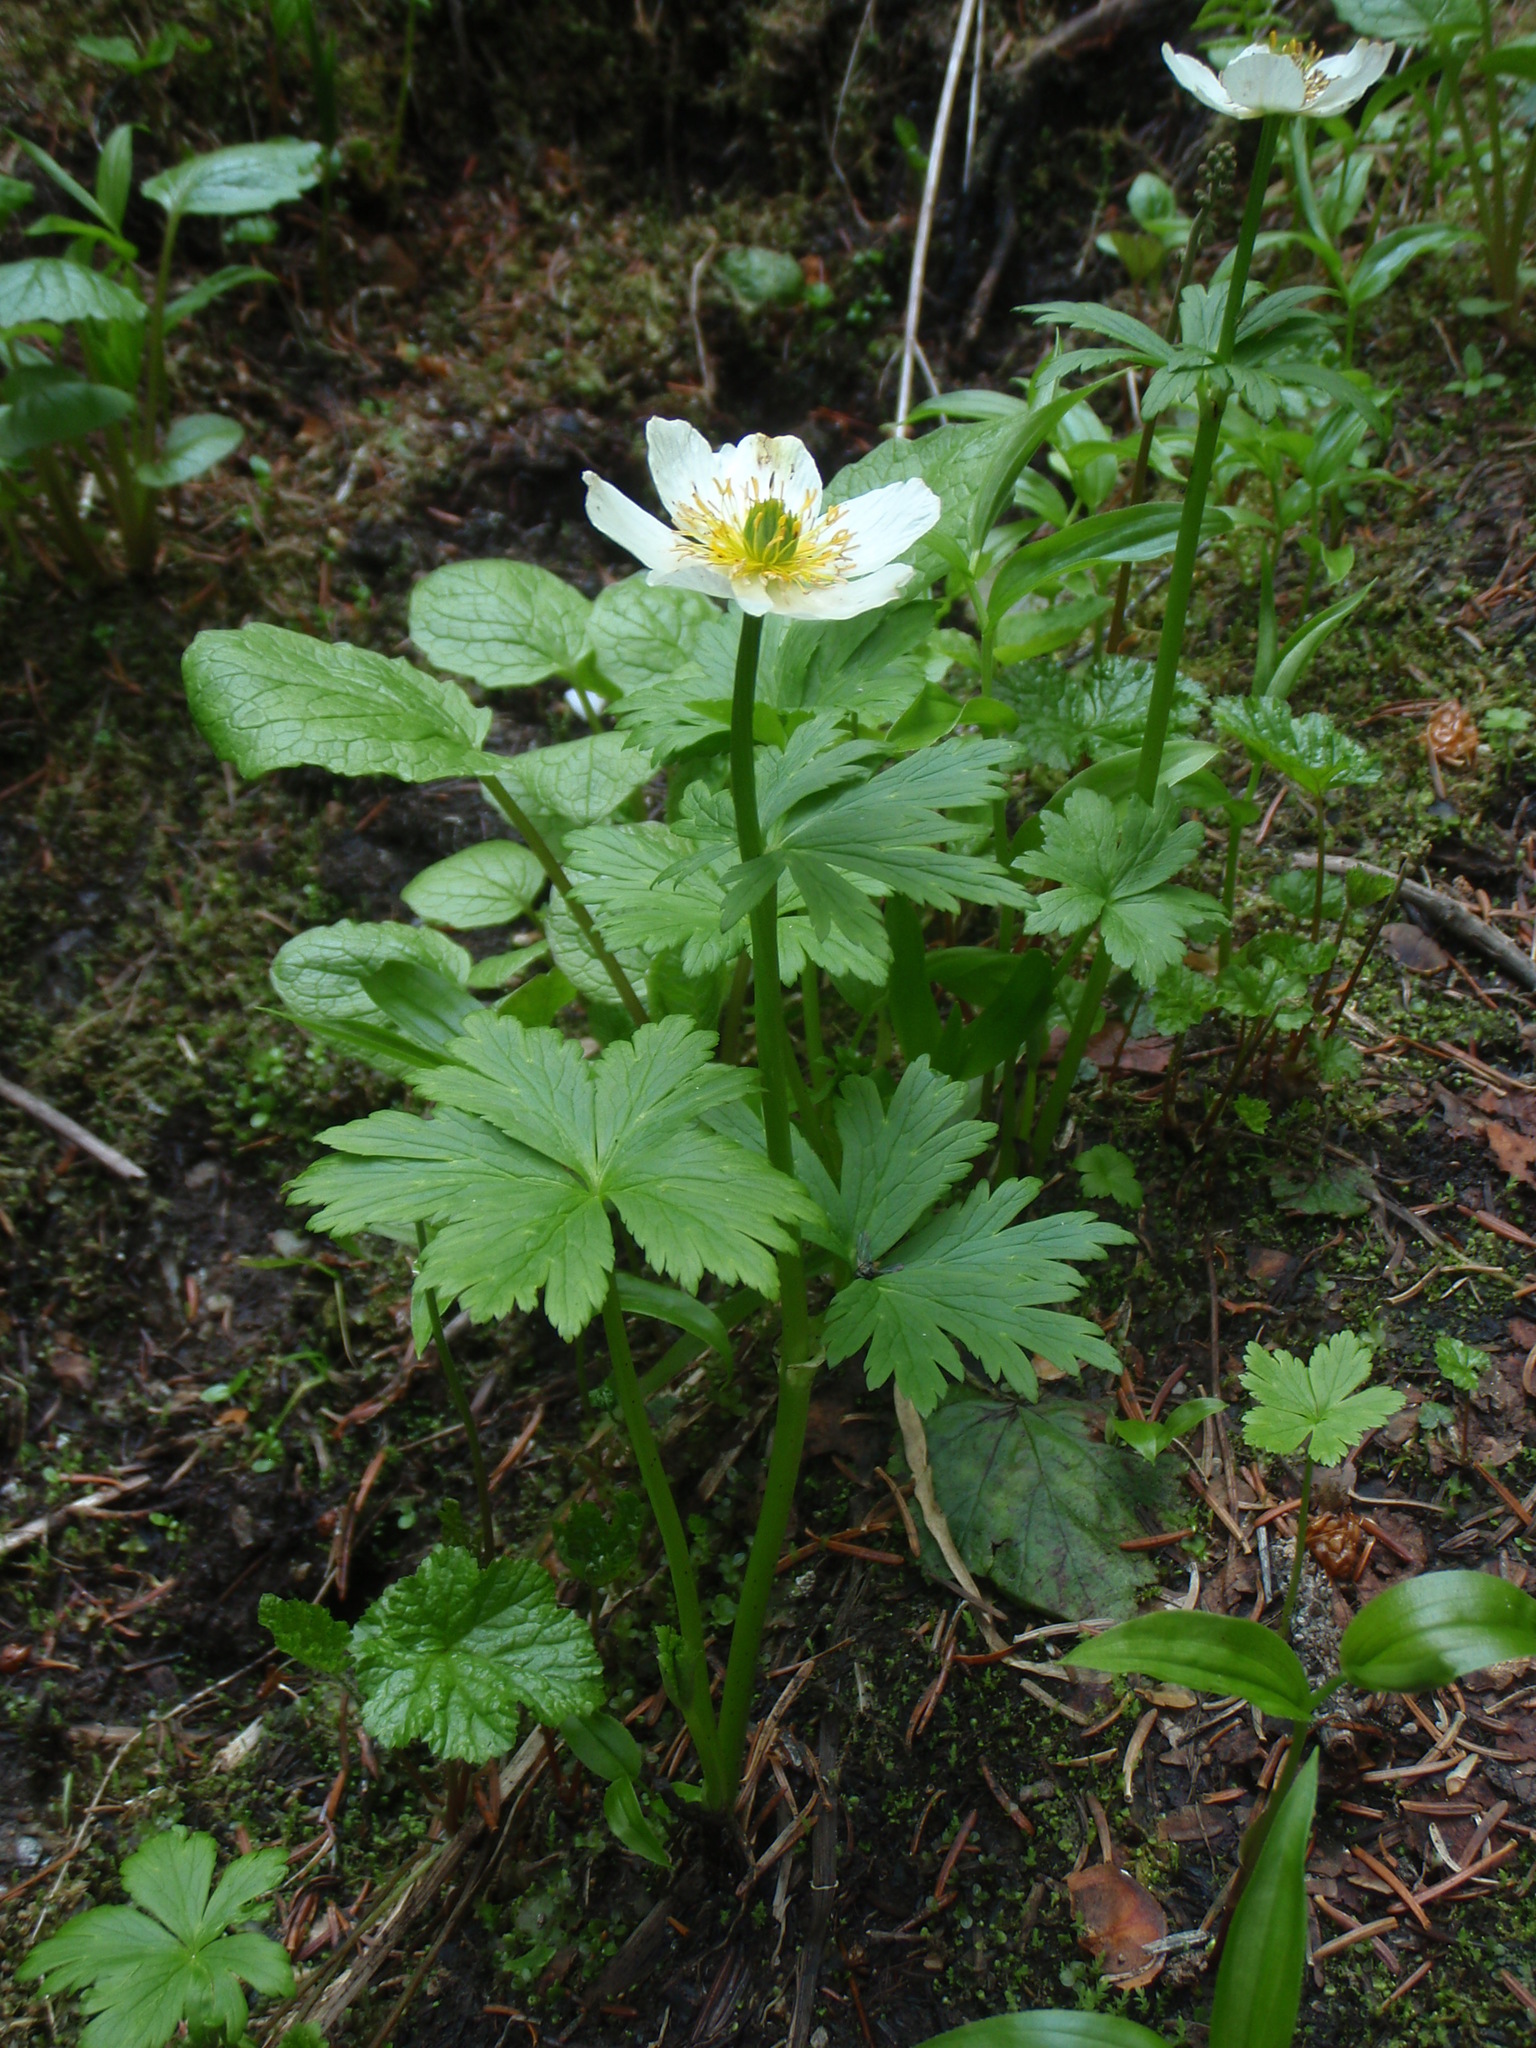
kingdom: Plantae
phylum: Tracheophyta
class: Magnoliopsida
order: Ranunculales
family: Ranunculaceae
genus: Trollius
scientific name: Trollius laxus
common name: American globeflower
